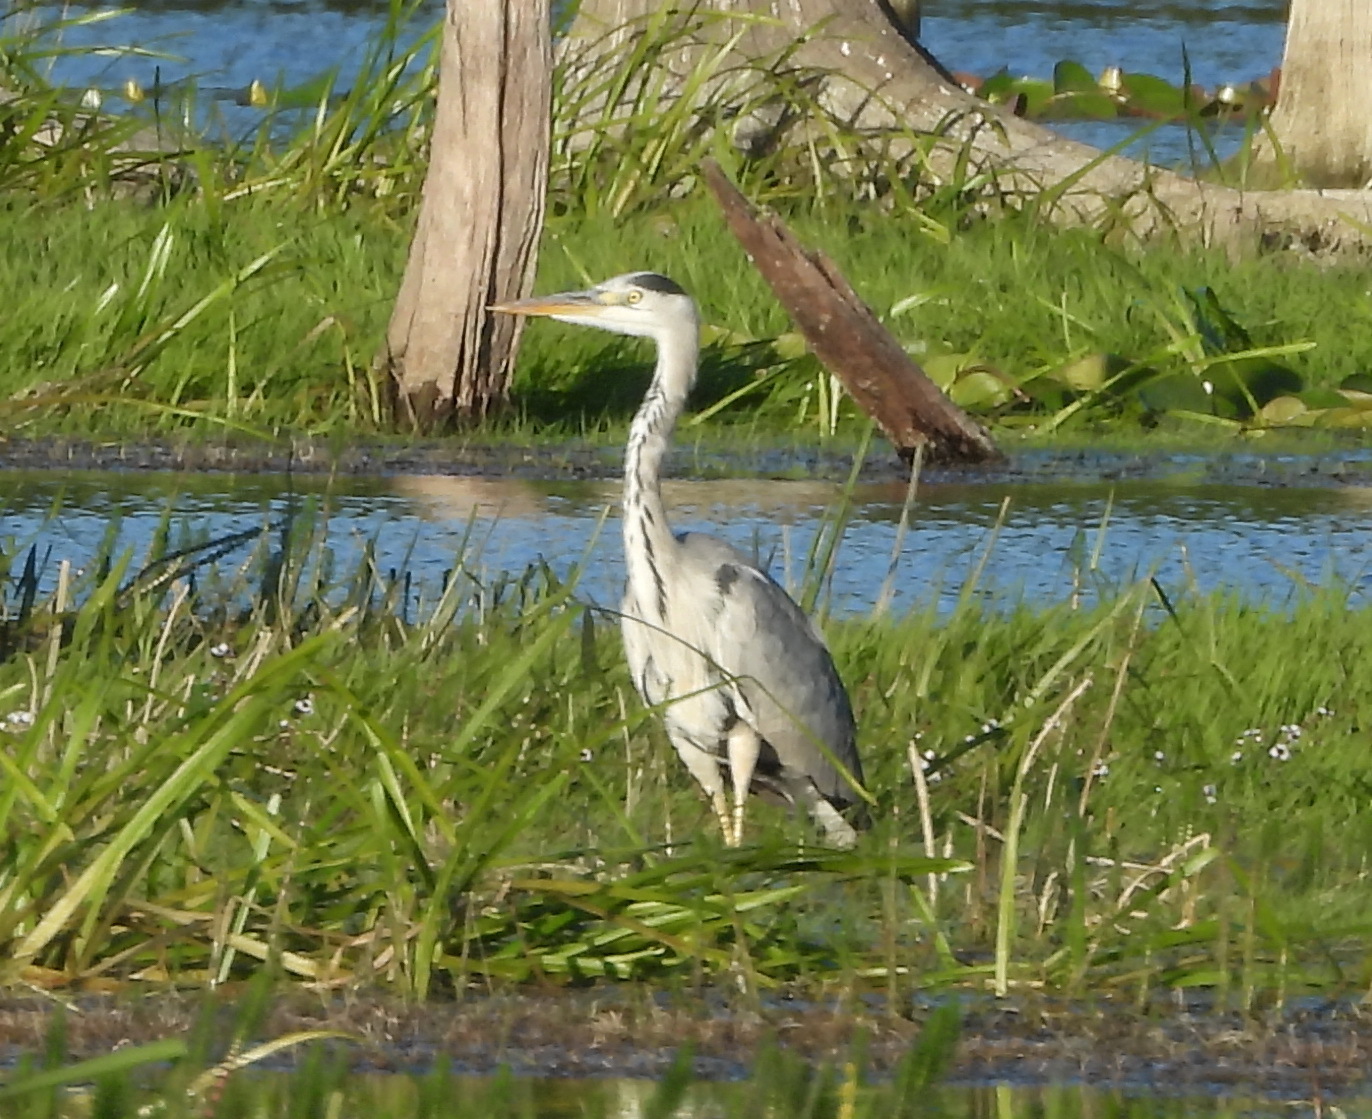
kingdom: Animalia
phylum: Chordata
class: Aves
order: Pelecaniformes
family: Ardeidae
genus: Ardea
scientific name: Ardea cinerea
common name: Grey heron
